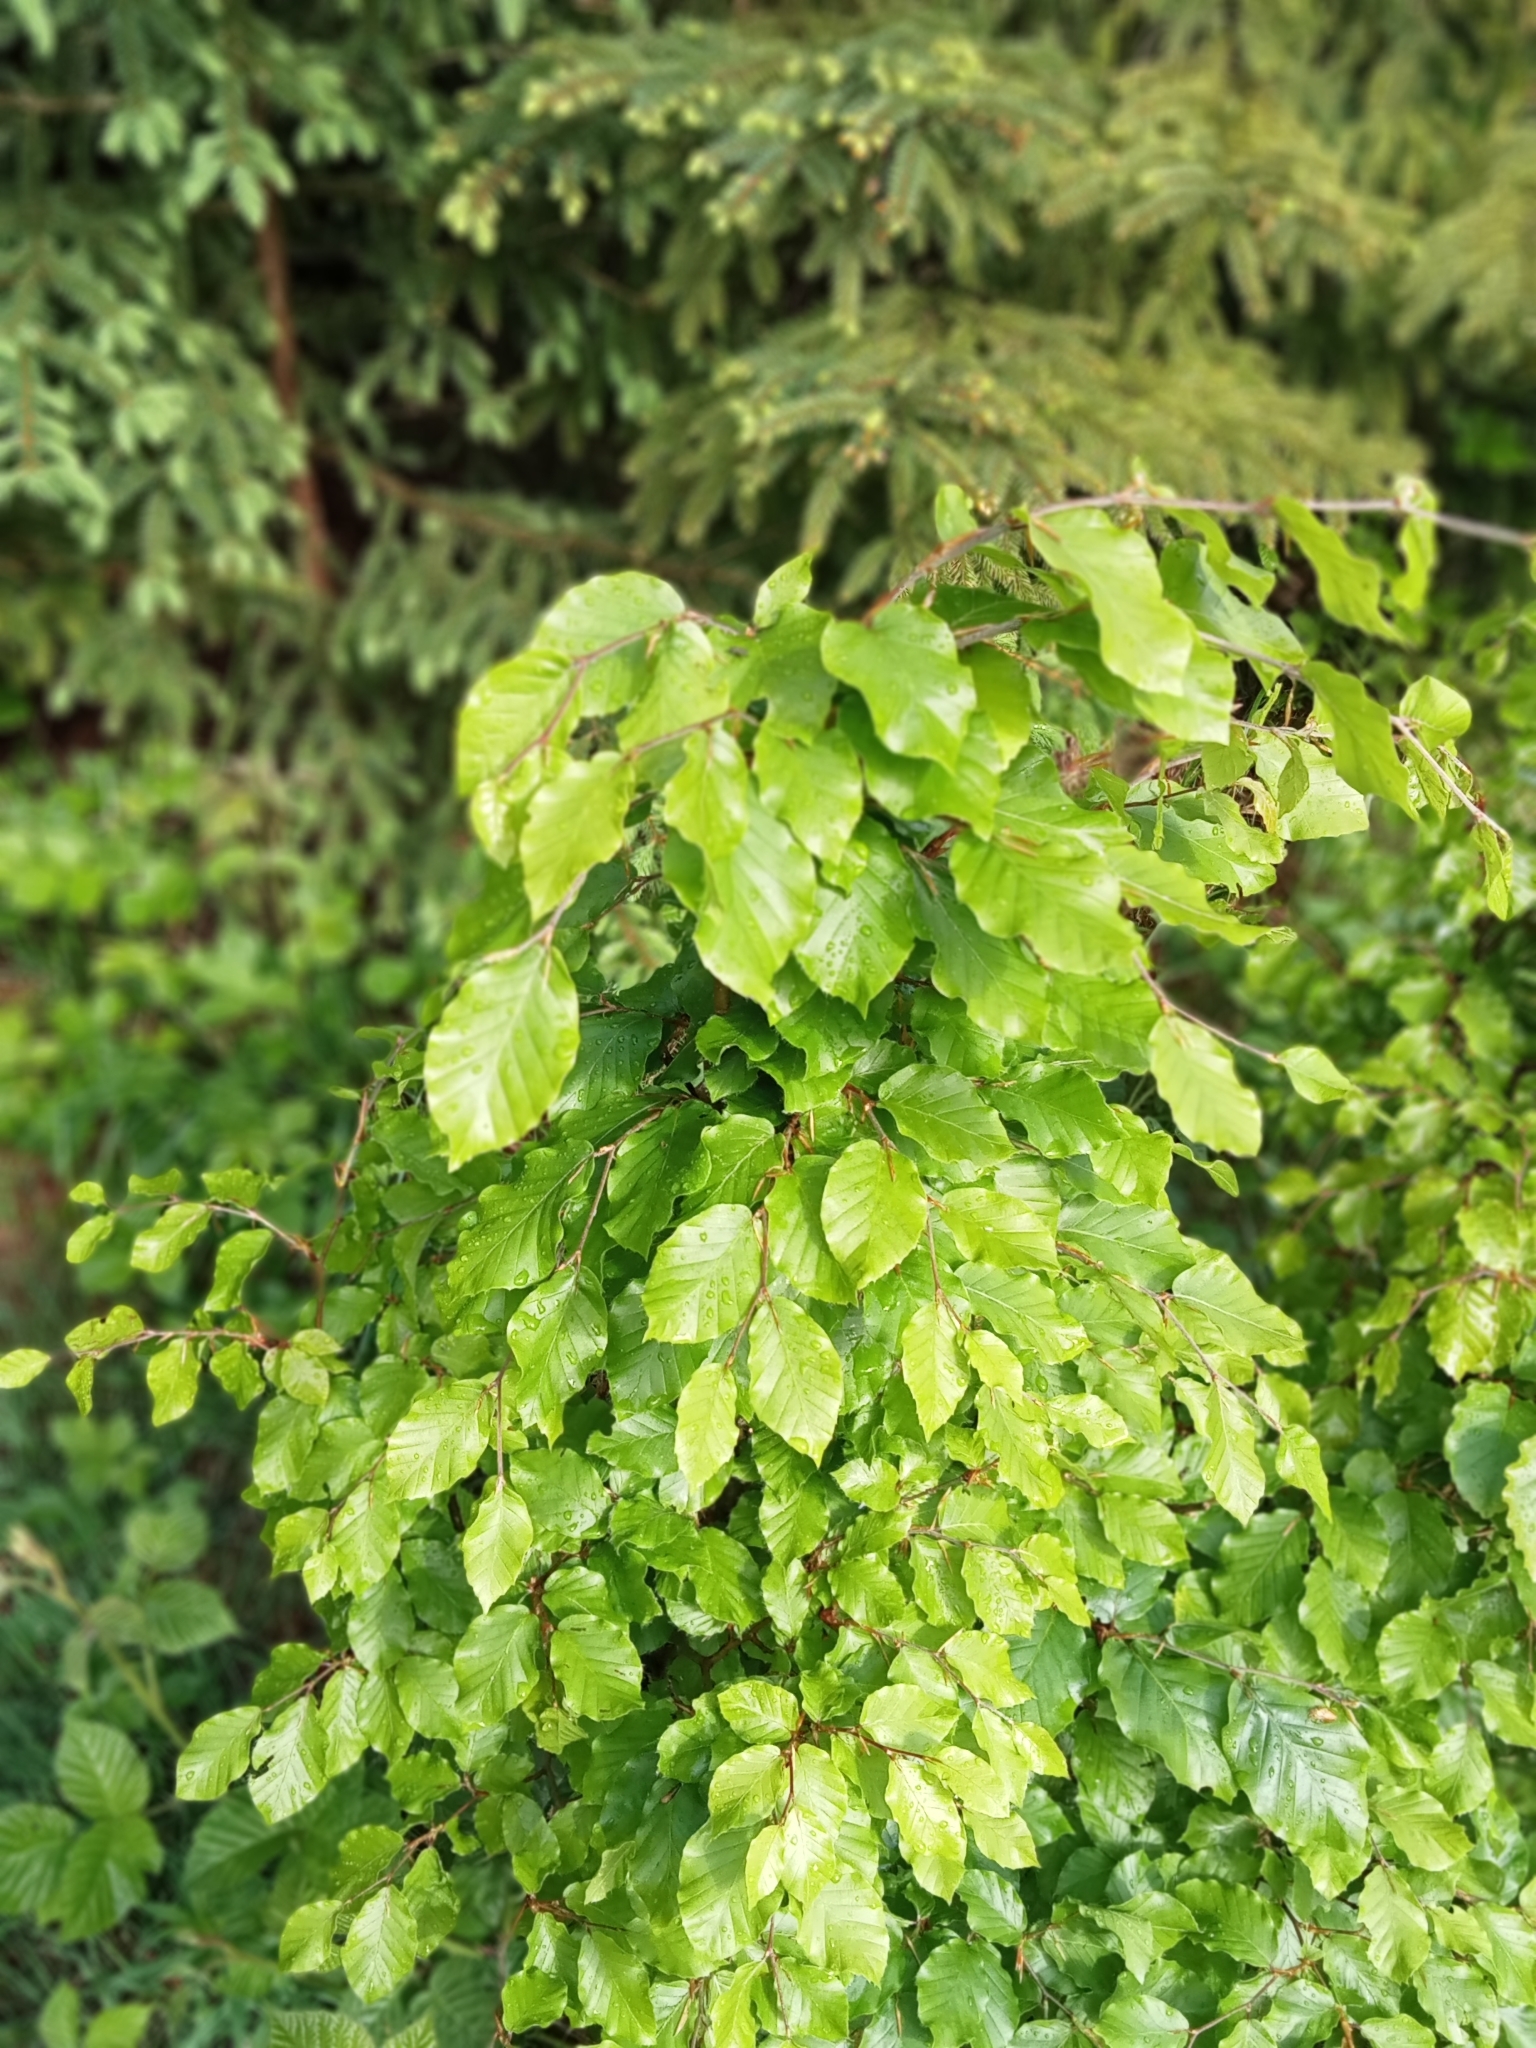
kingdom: Plantae
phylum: Tracheophyta
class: Magnoliopsida
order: Fagales
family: Fagaceae
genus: Fagus
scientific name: Fagus sylvatica
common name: Beech
